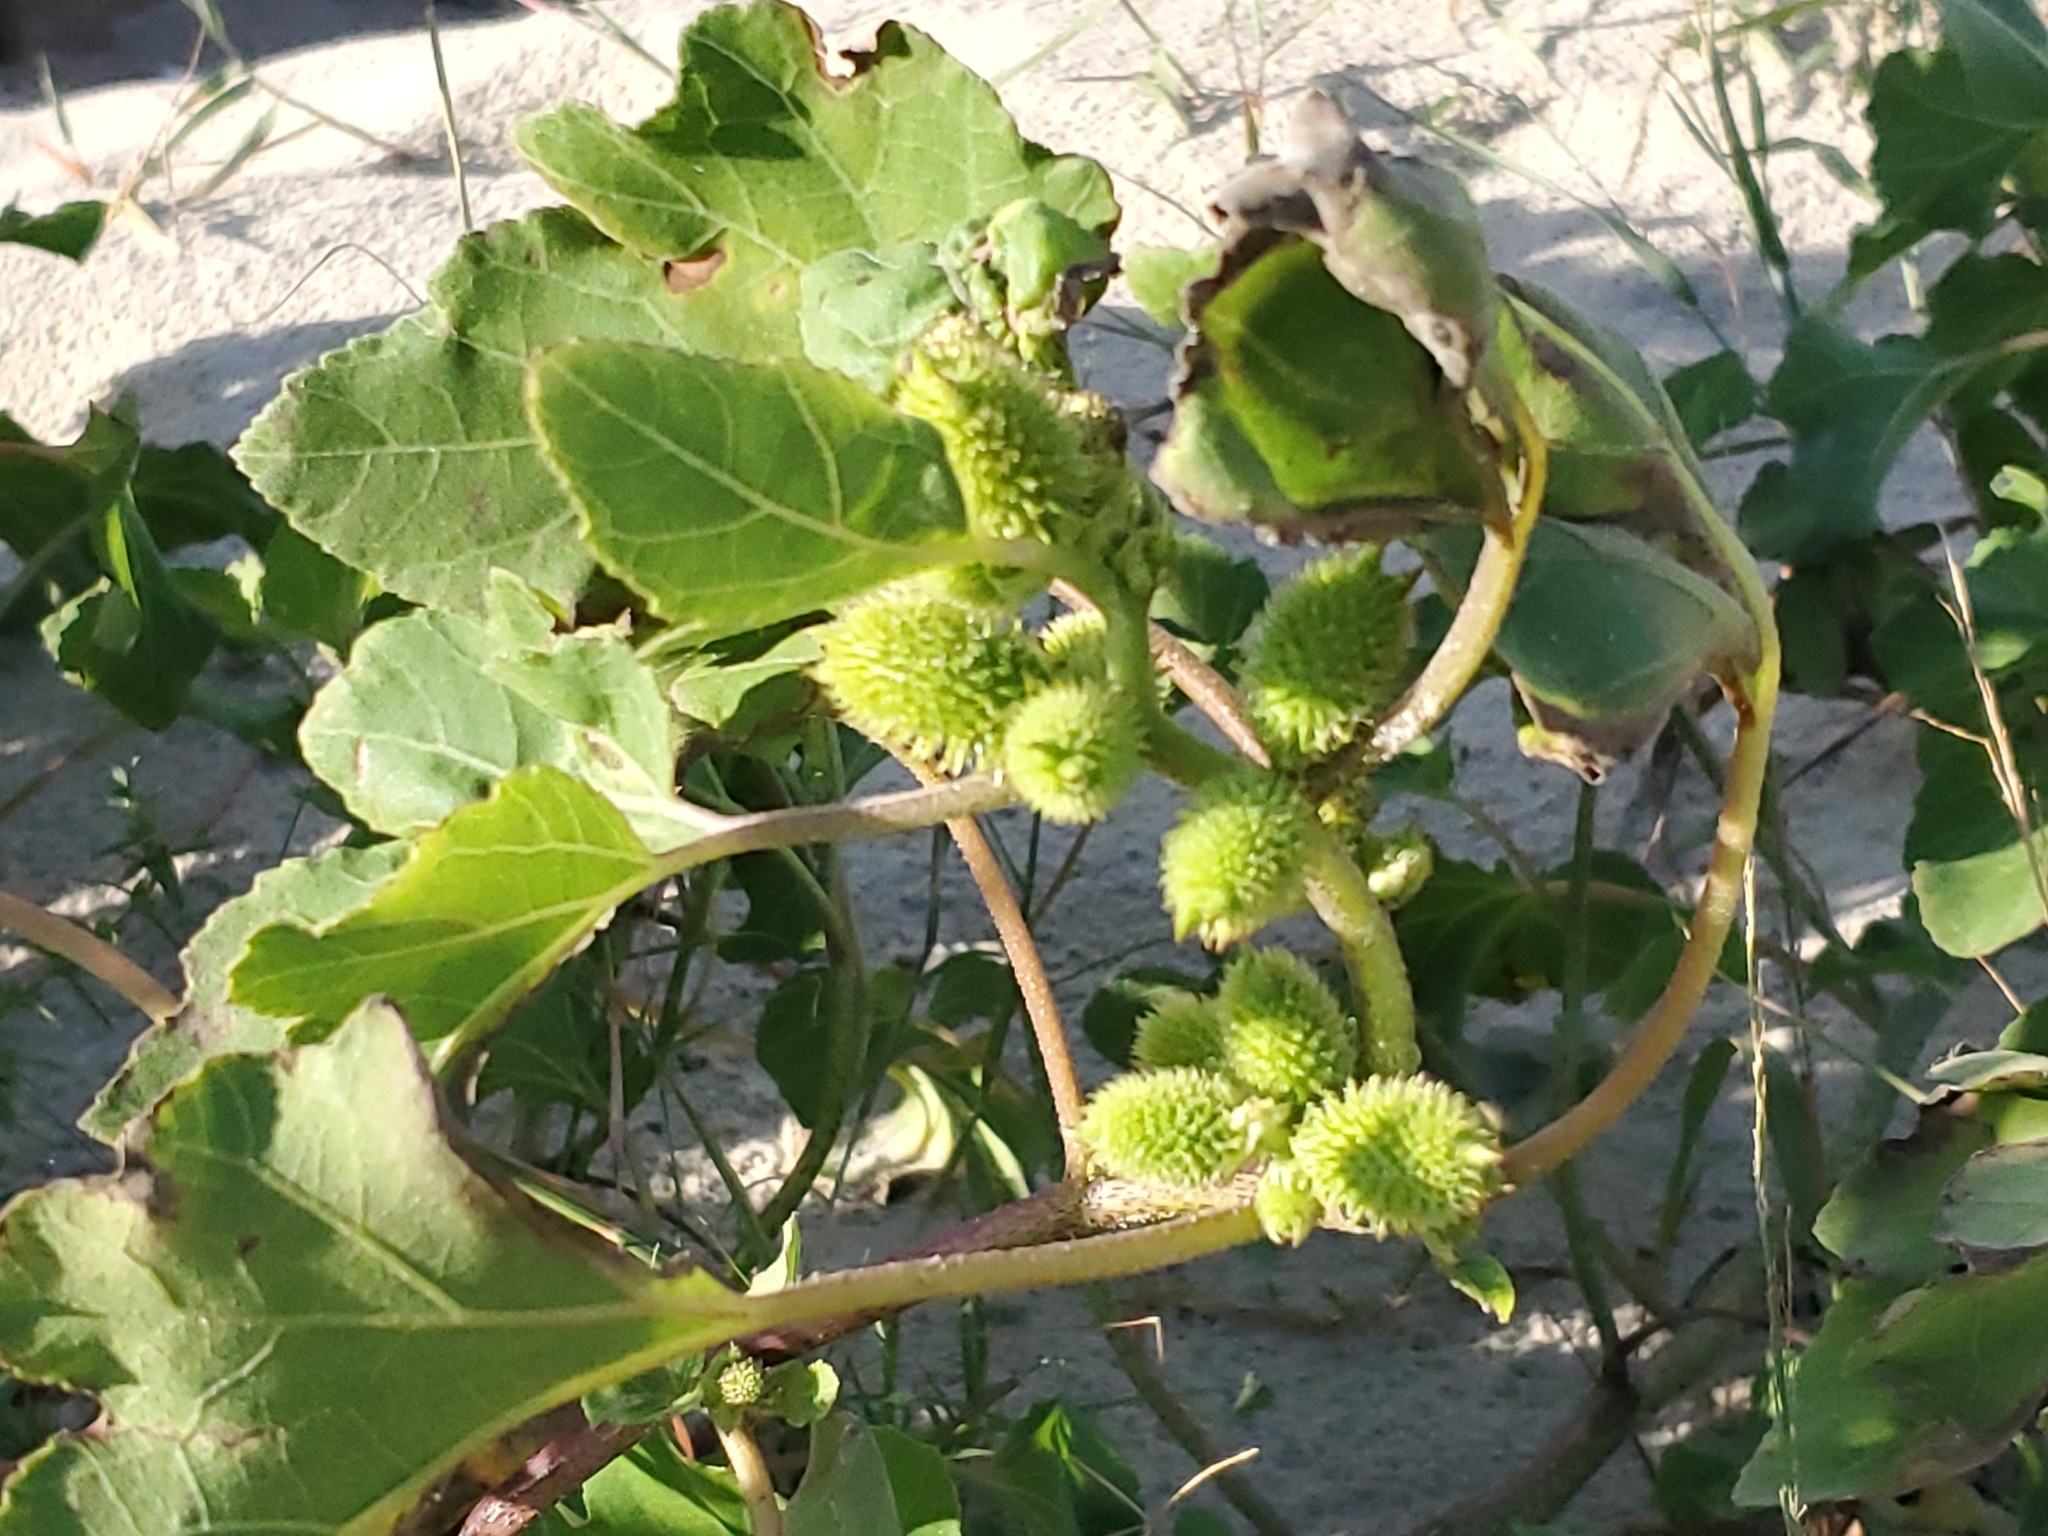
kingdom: Plantae
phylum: Tracheophyta
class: Magnoliopsida
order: Asterales
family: Asteraceae
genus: Xanthium
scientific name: Xanthium strumarium
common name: Rough cocklebur
